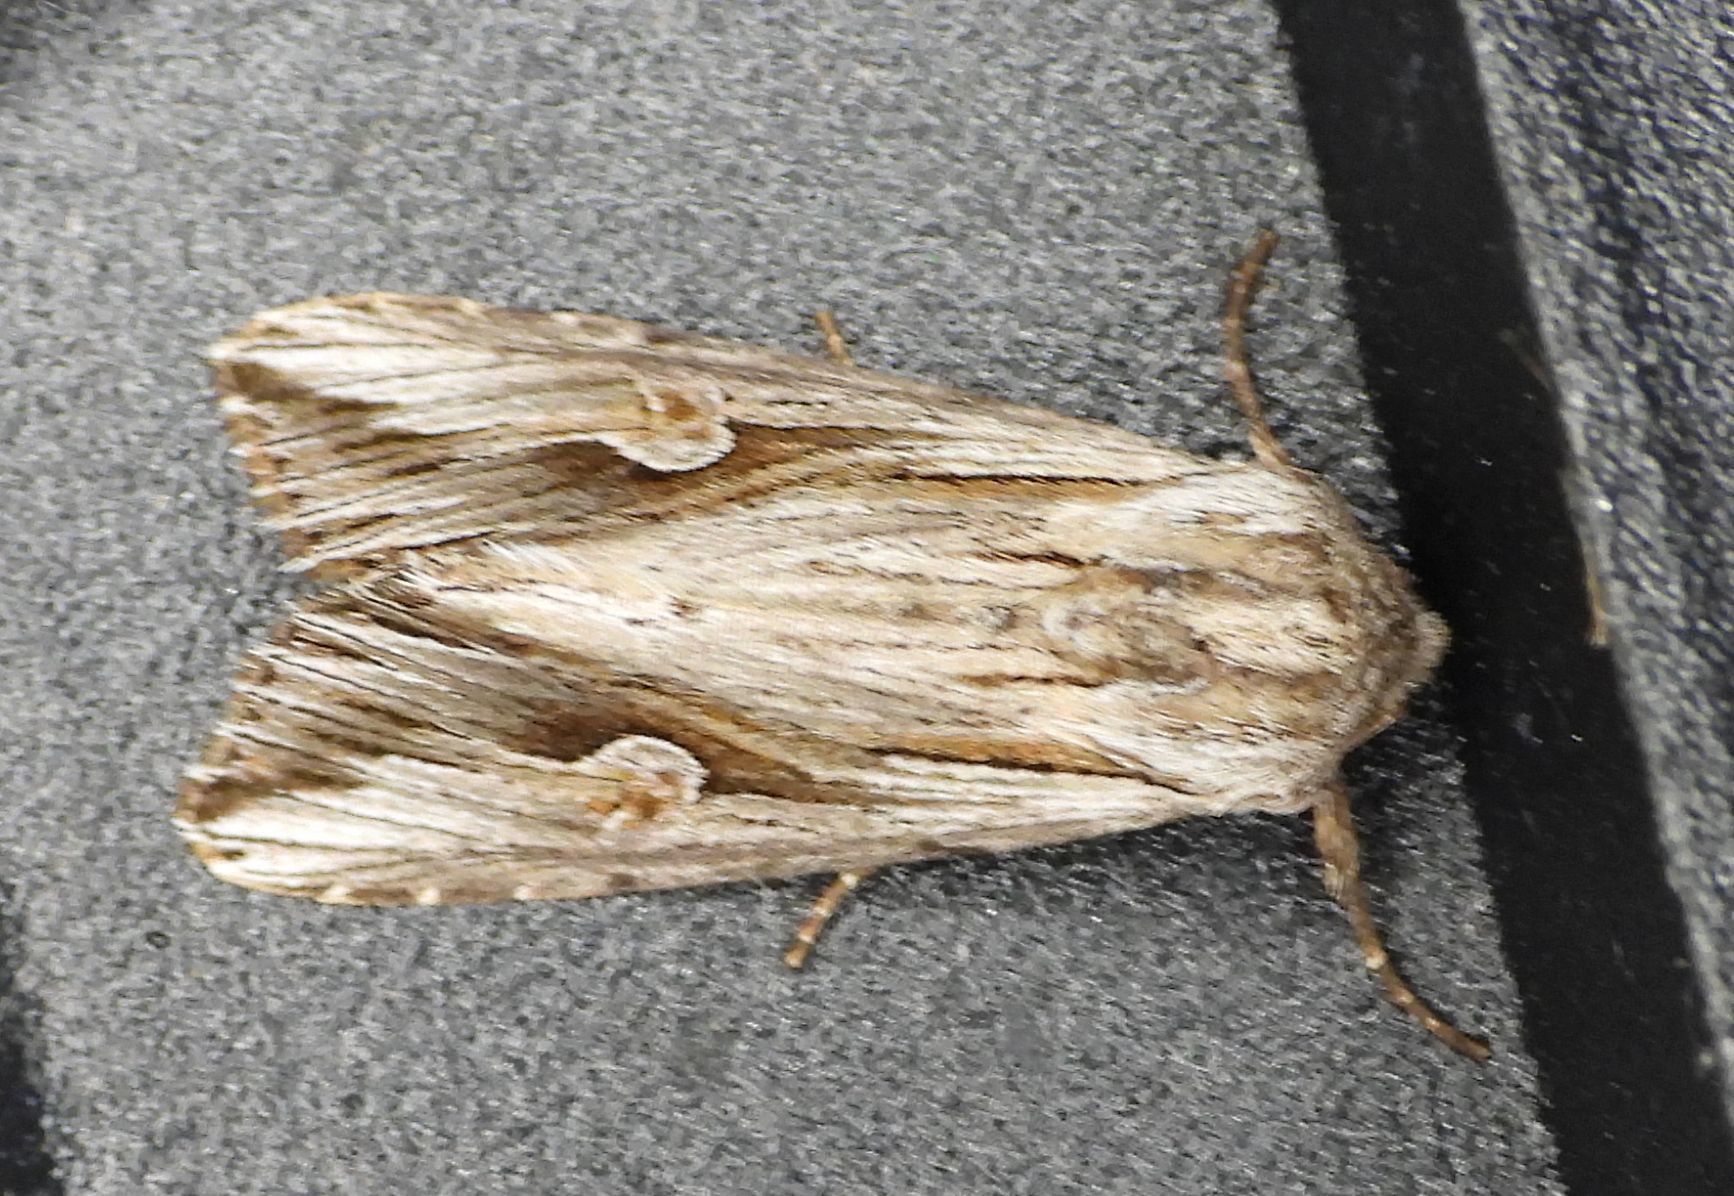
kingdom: Animalia
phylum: Arthropoda
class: Insecta
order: Lepidoptera
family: Noctuidae
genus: Nedra
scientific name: Nedra ramosula
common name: Gray half-spot
